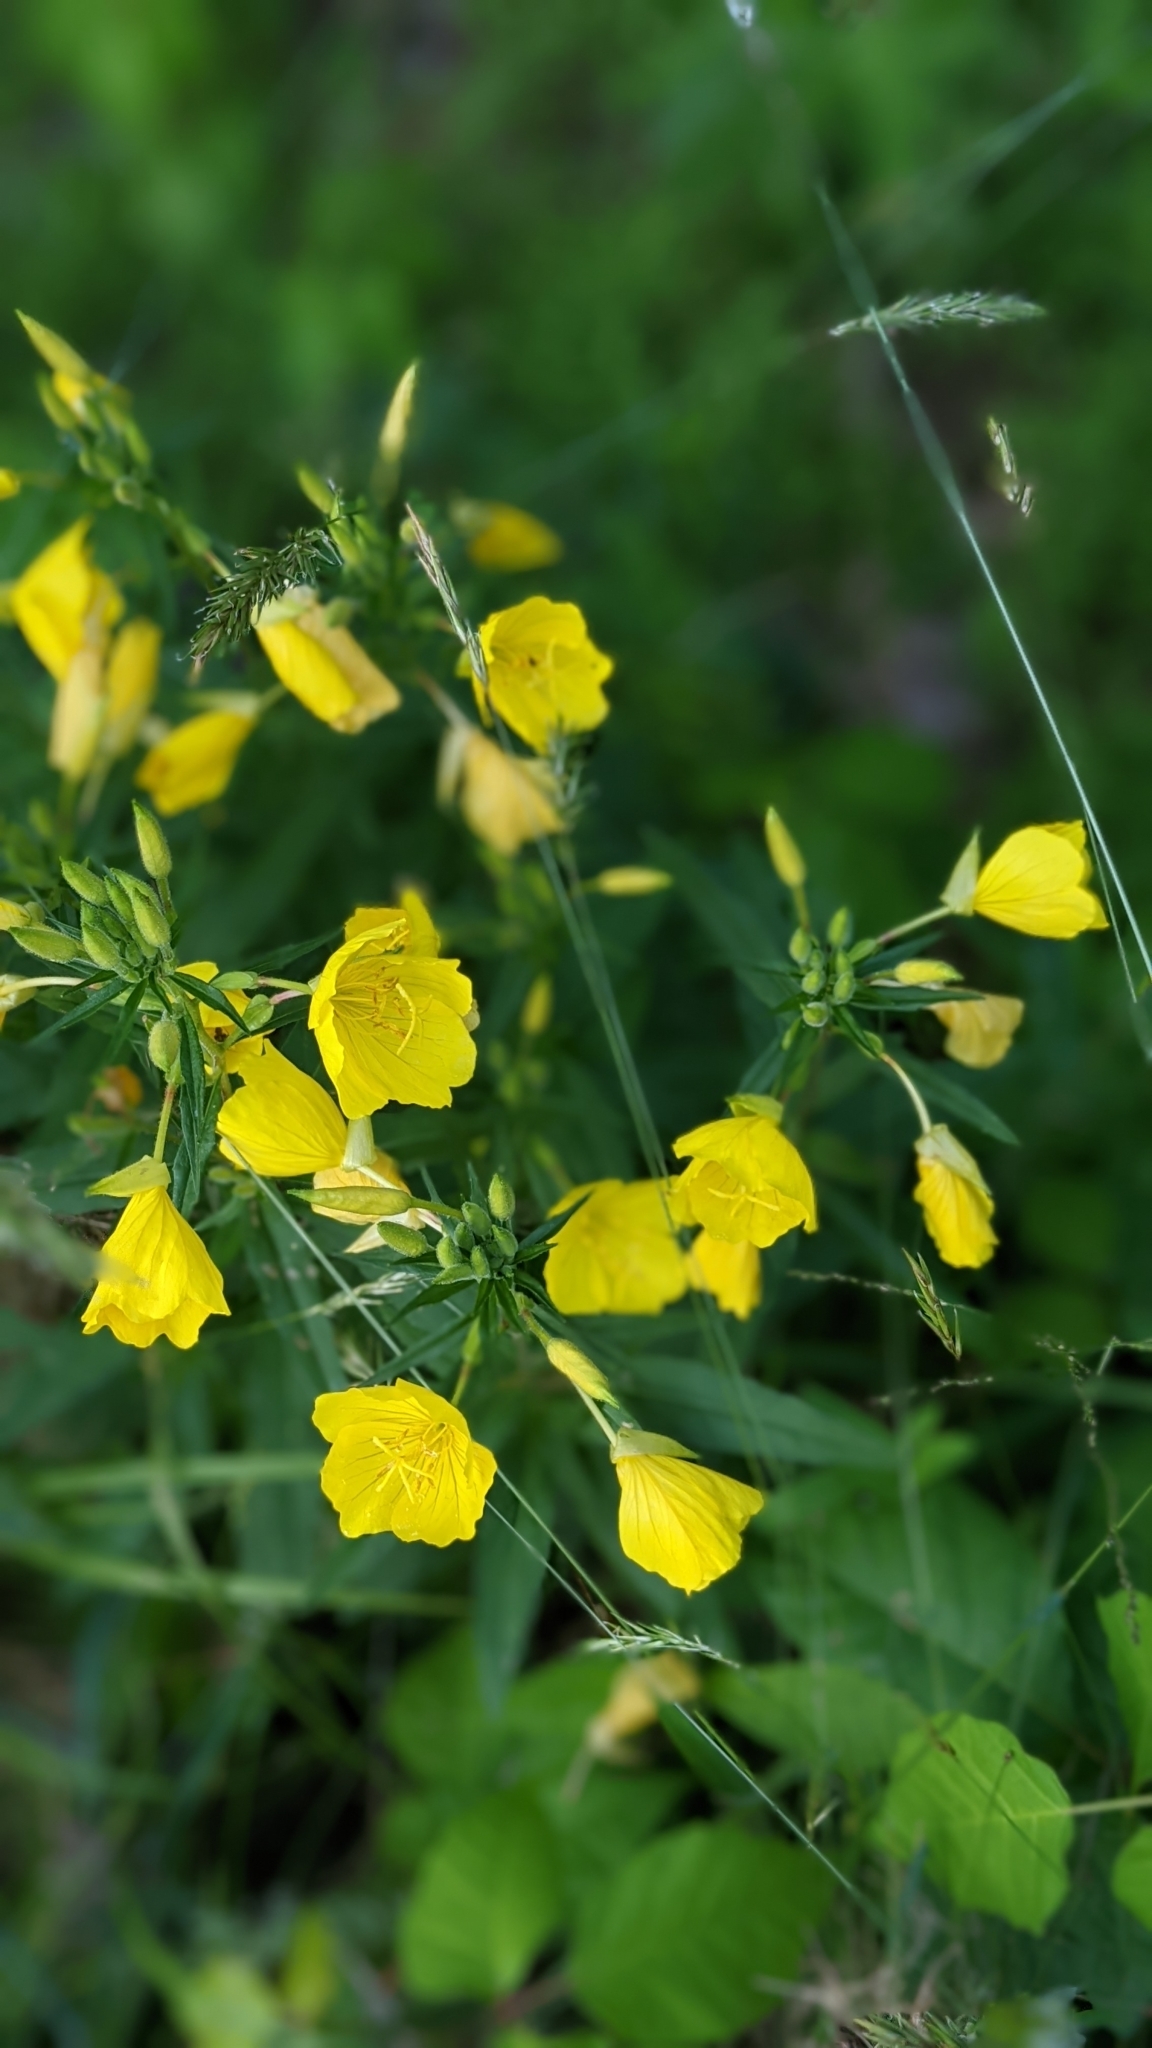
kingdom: Plantae
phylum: Tracheophyta
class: Magnoliopsida
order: Myrtales
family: Onagraceae
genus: Oenothera
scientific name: Oenothera fruticosa
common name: Southern sundrops
